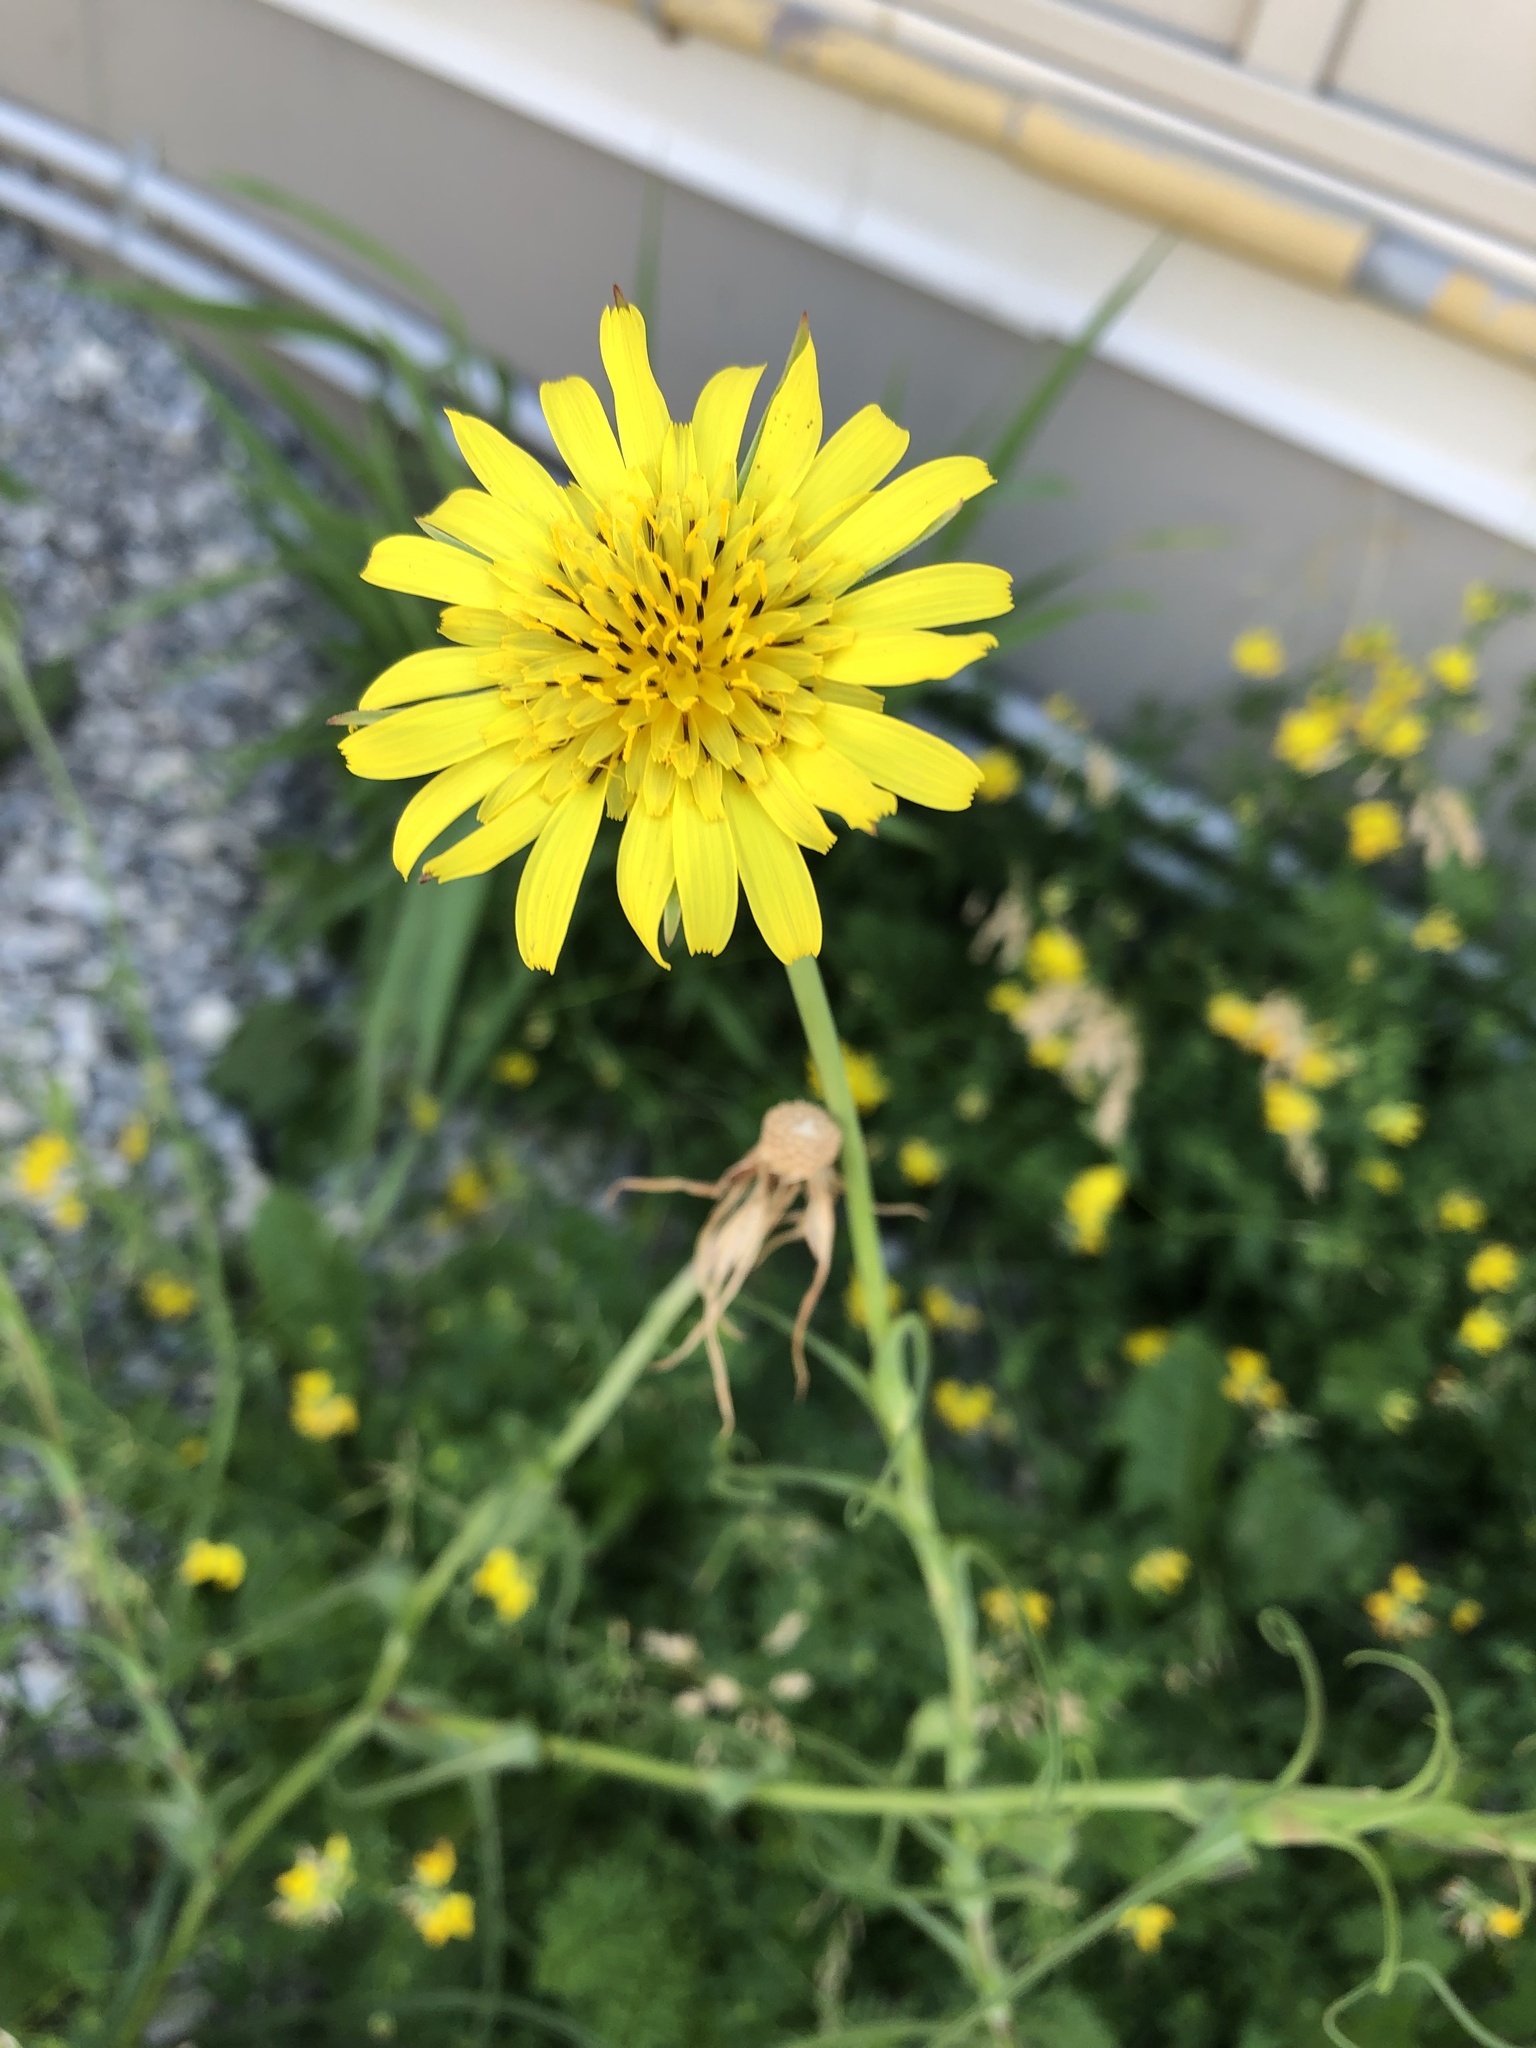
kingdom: Plantae
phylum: Tracheophyta
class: Magnoliopsida
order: Asterales
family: Asteraceae
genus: Tragopogon
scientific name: Tragopogon pratensis
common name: Goat's-beard
